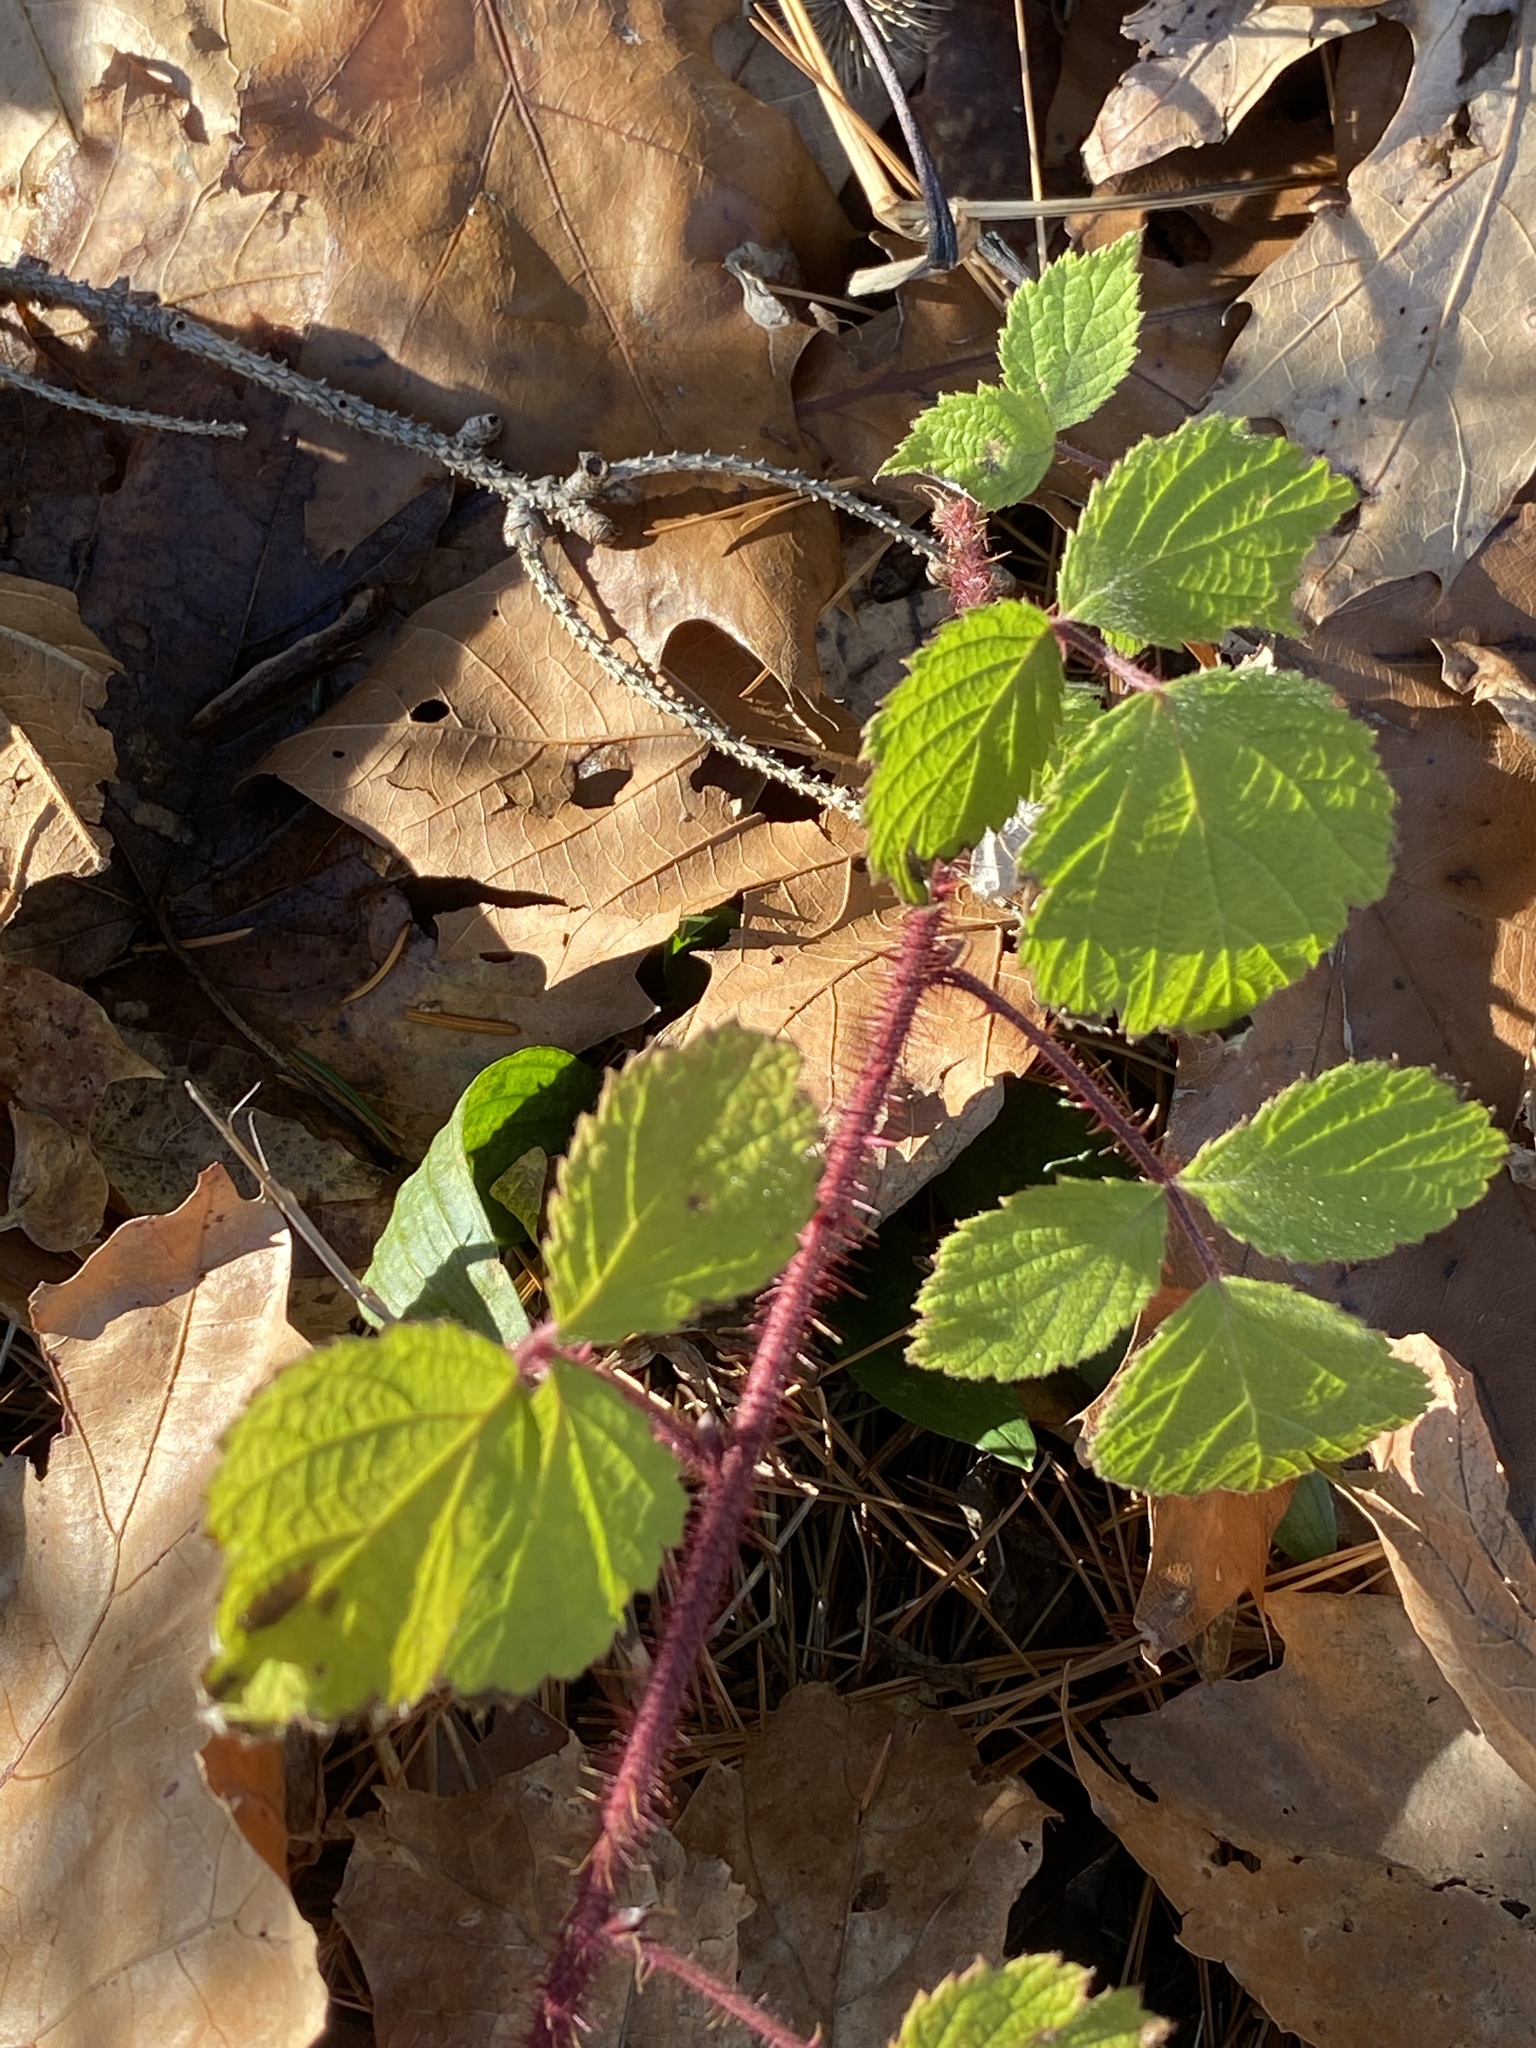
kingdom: Plantae
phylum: Tracheophyta
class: Magnoliopsida
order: Rosales
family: Rosaceae
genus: Rubus
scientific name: Rubus phoenicolasius
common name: Japanese wineberry
